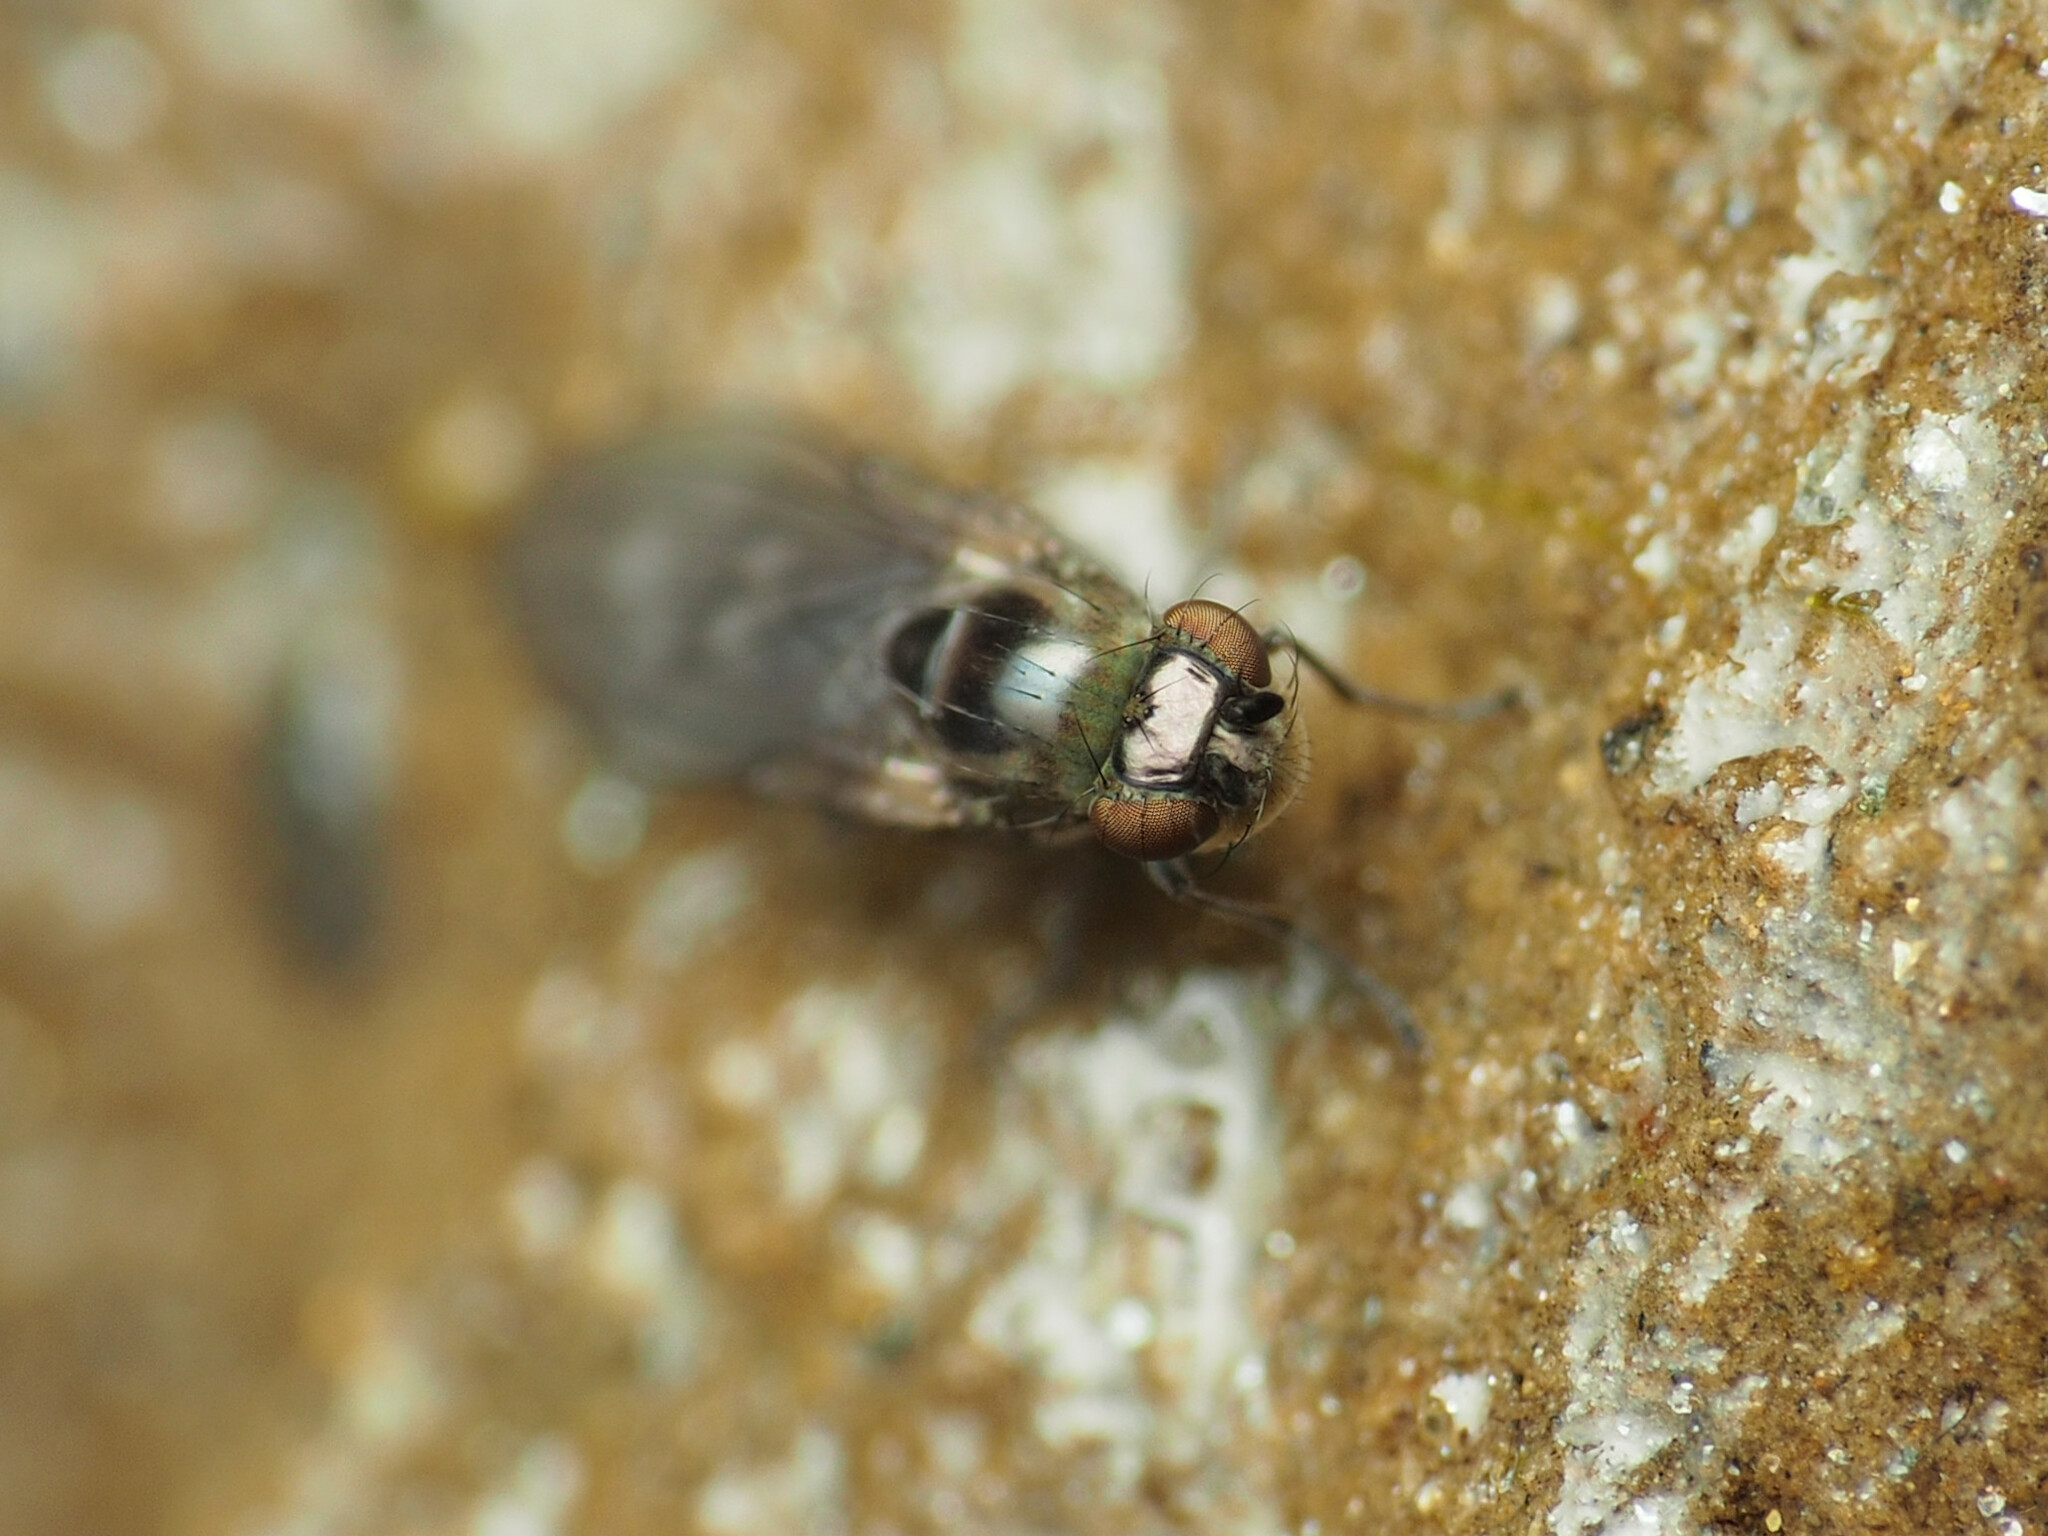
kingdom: Animalia
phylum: Arthropoda
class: Insecta
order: Diptera
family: Ephydridae
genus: Scatella
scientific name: Scatella favillacea
